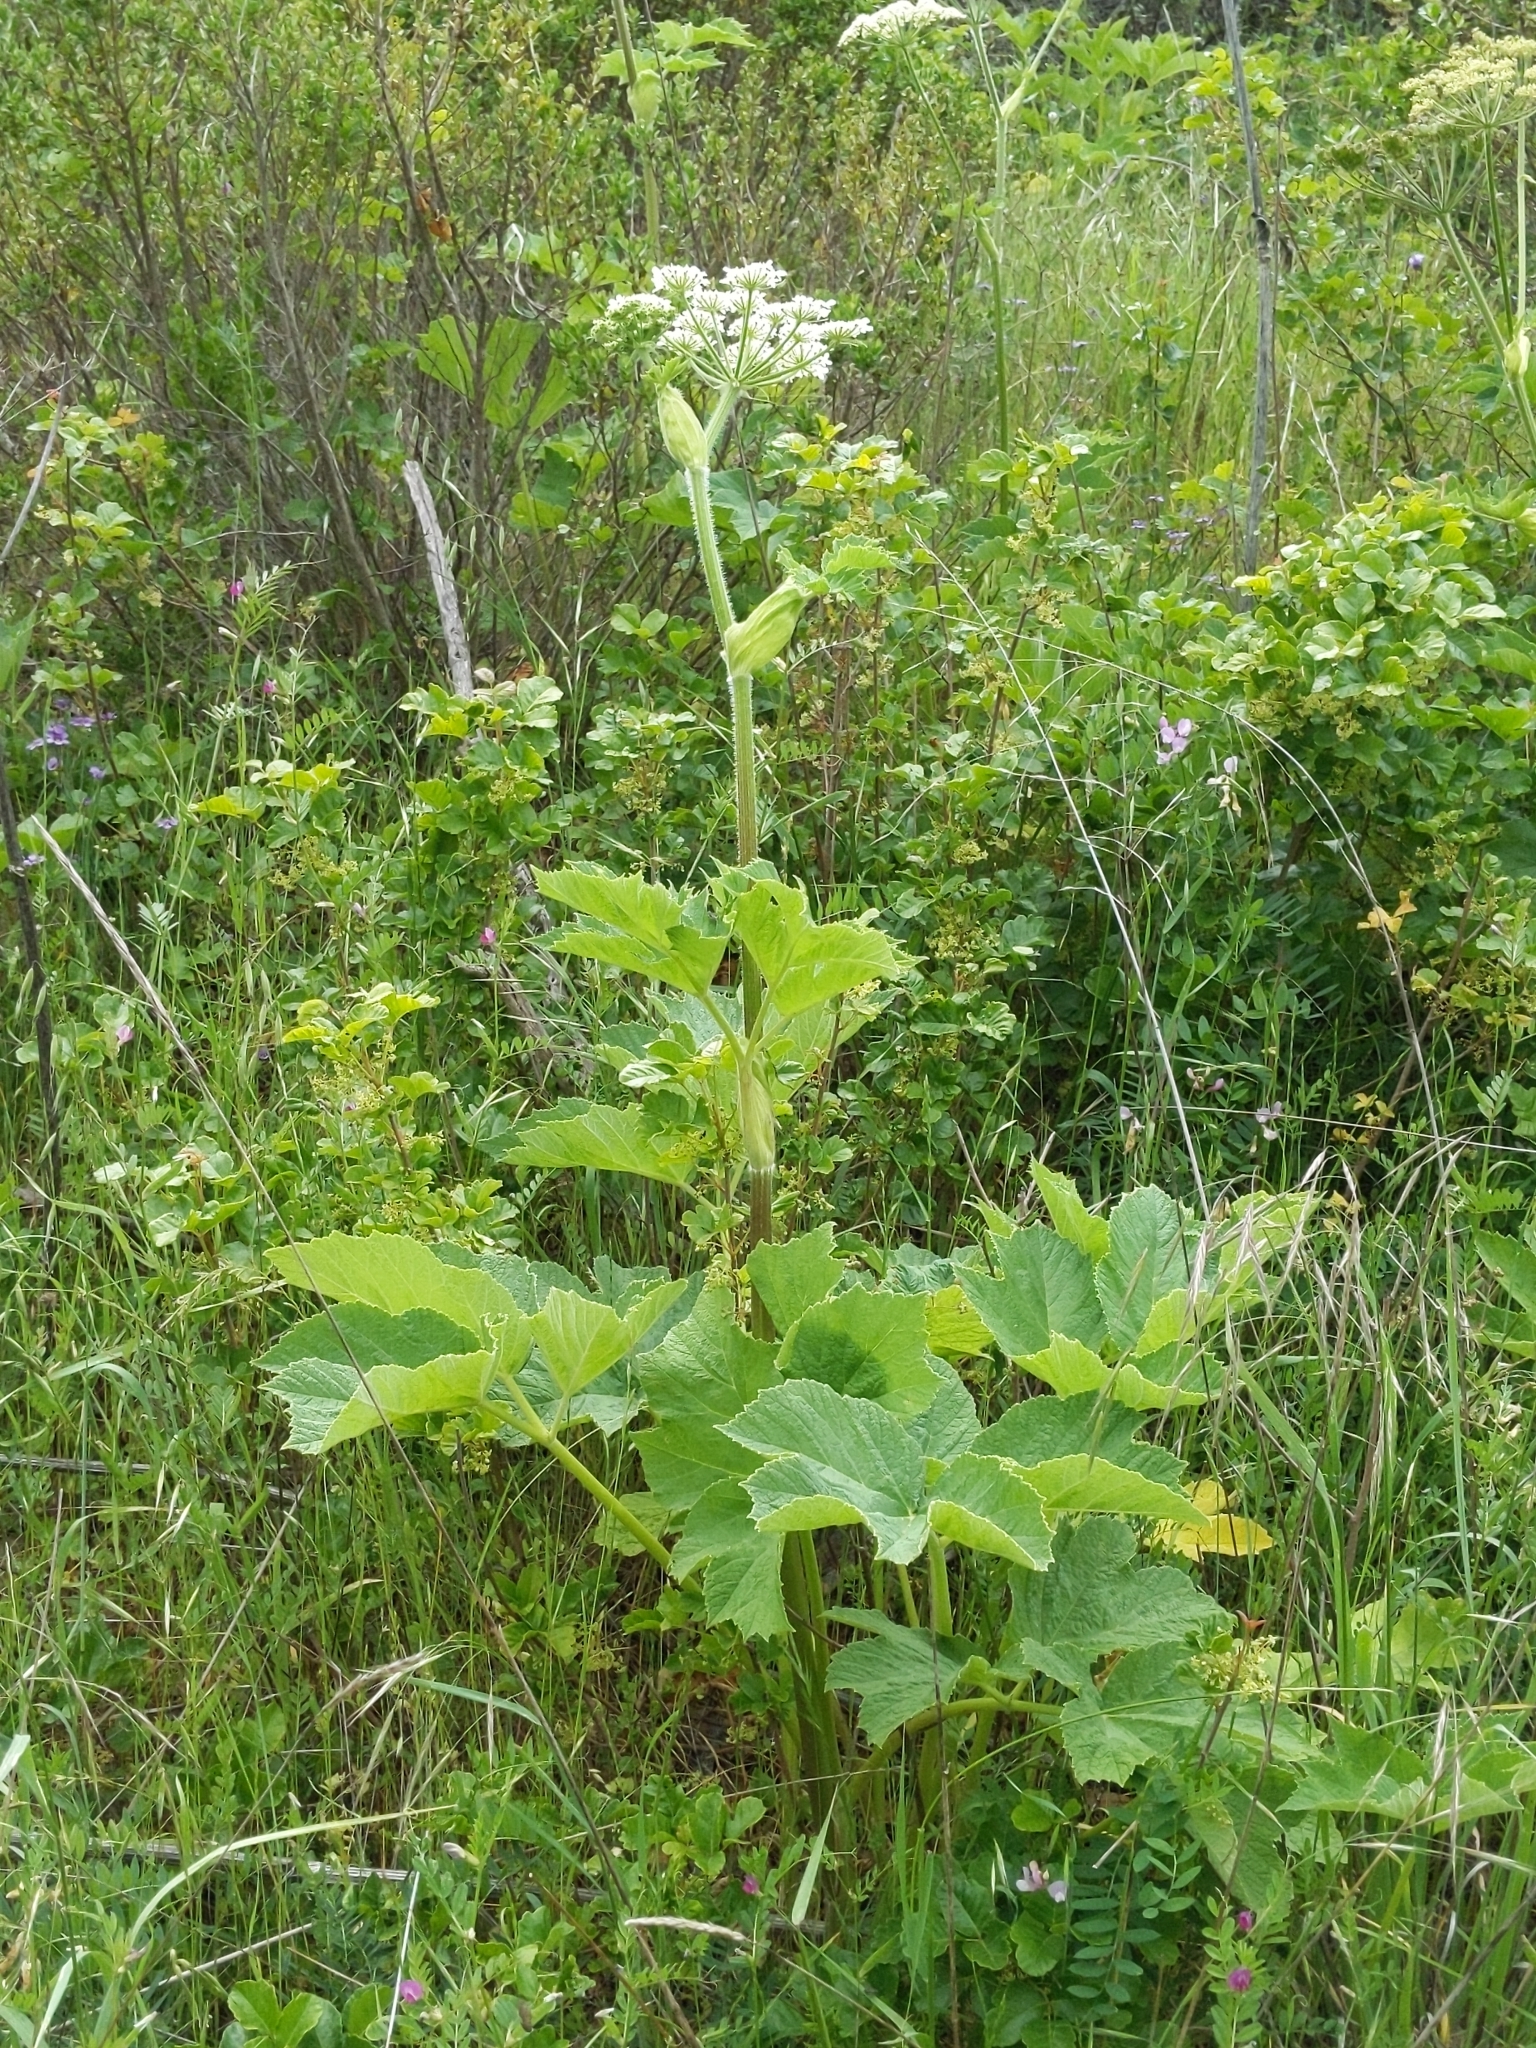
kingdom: Plantae
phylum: Tracheophyta
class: Magnoliopsida
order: Apiales
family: Apiaceae
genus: Heracleum
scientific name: Heracleum maximum
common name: American cow parsnip
